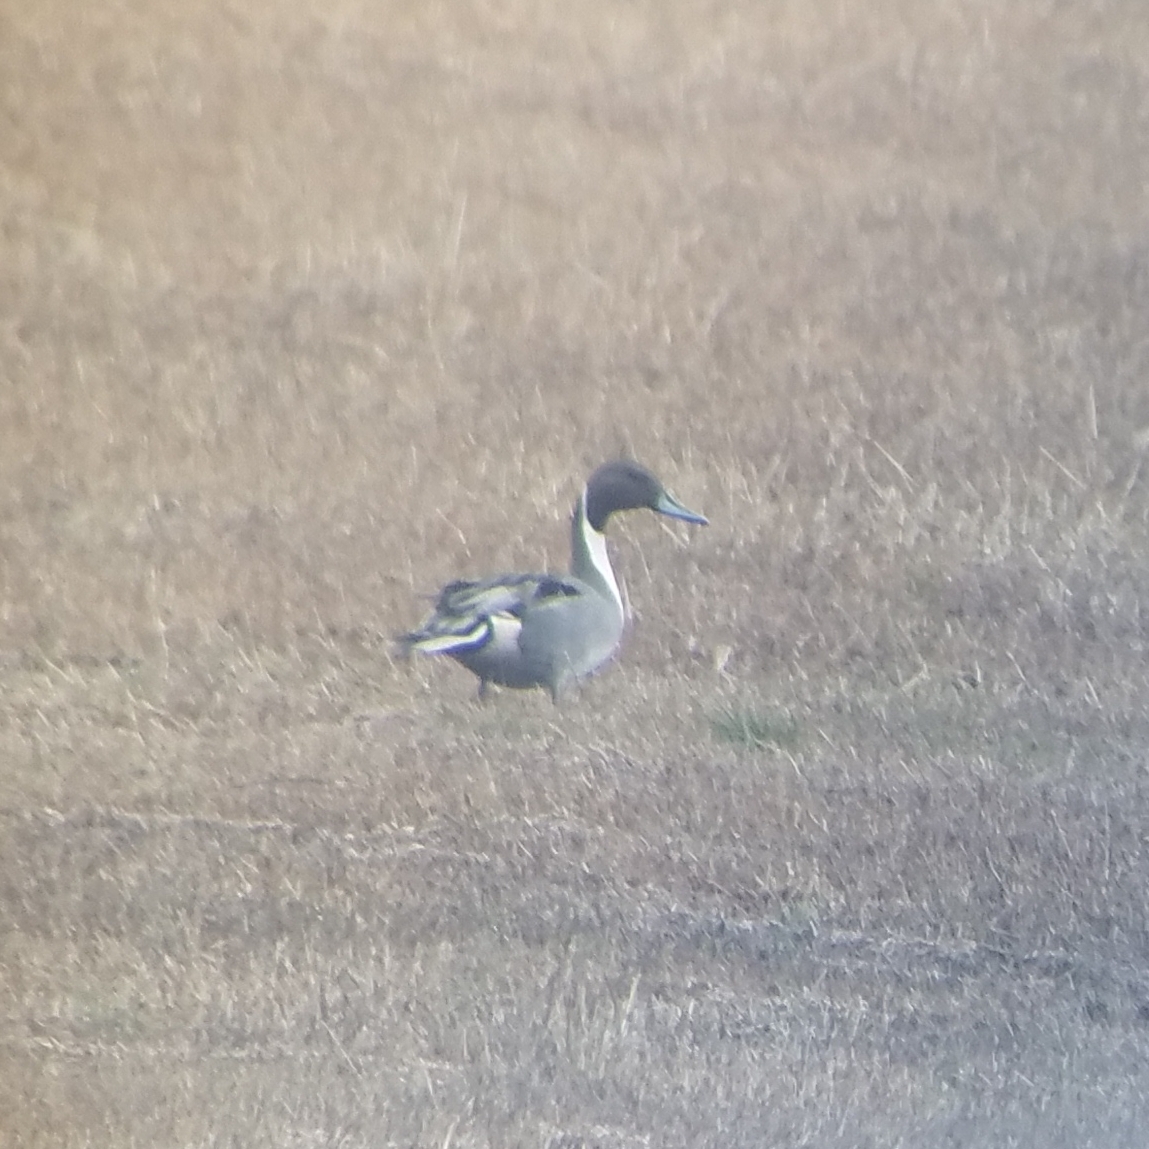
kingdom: Animalia
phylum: Chordata
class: Aves
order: Anseriformes
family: Anatidae
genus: Anas
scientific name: Anas acuta
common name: Northern pintail
